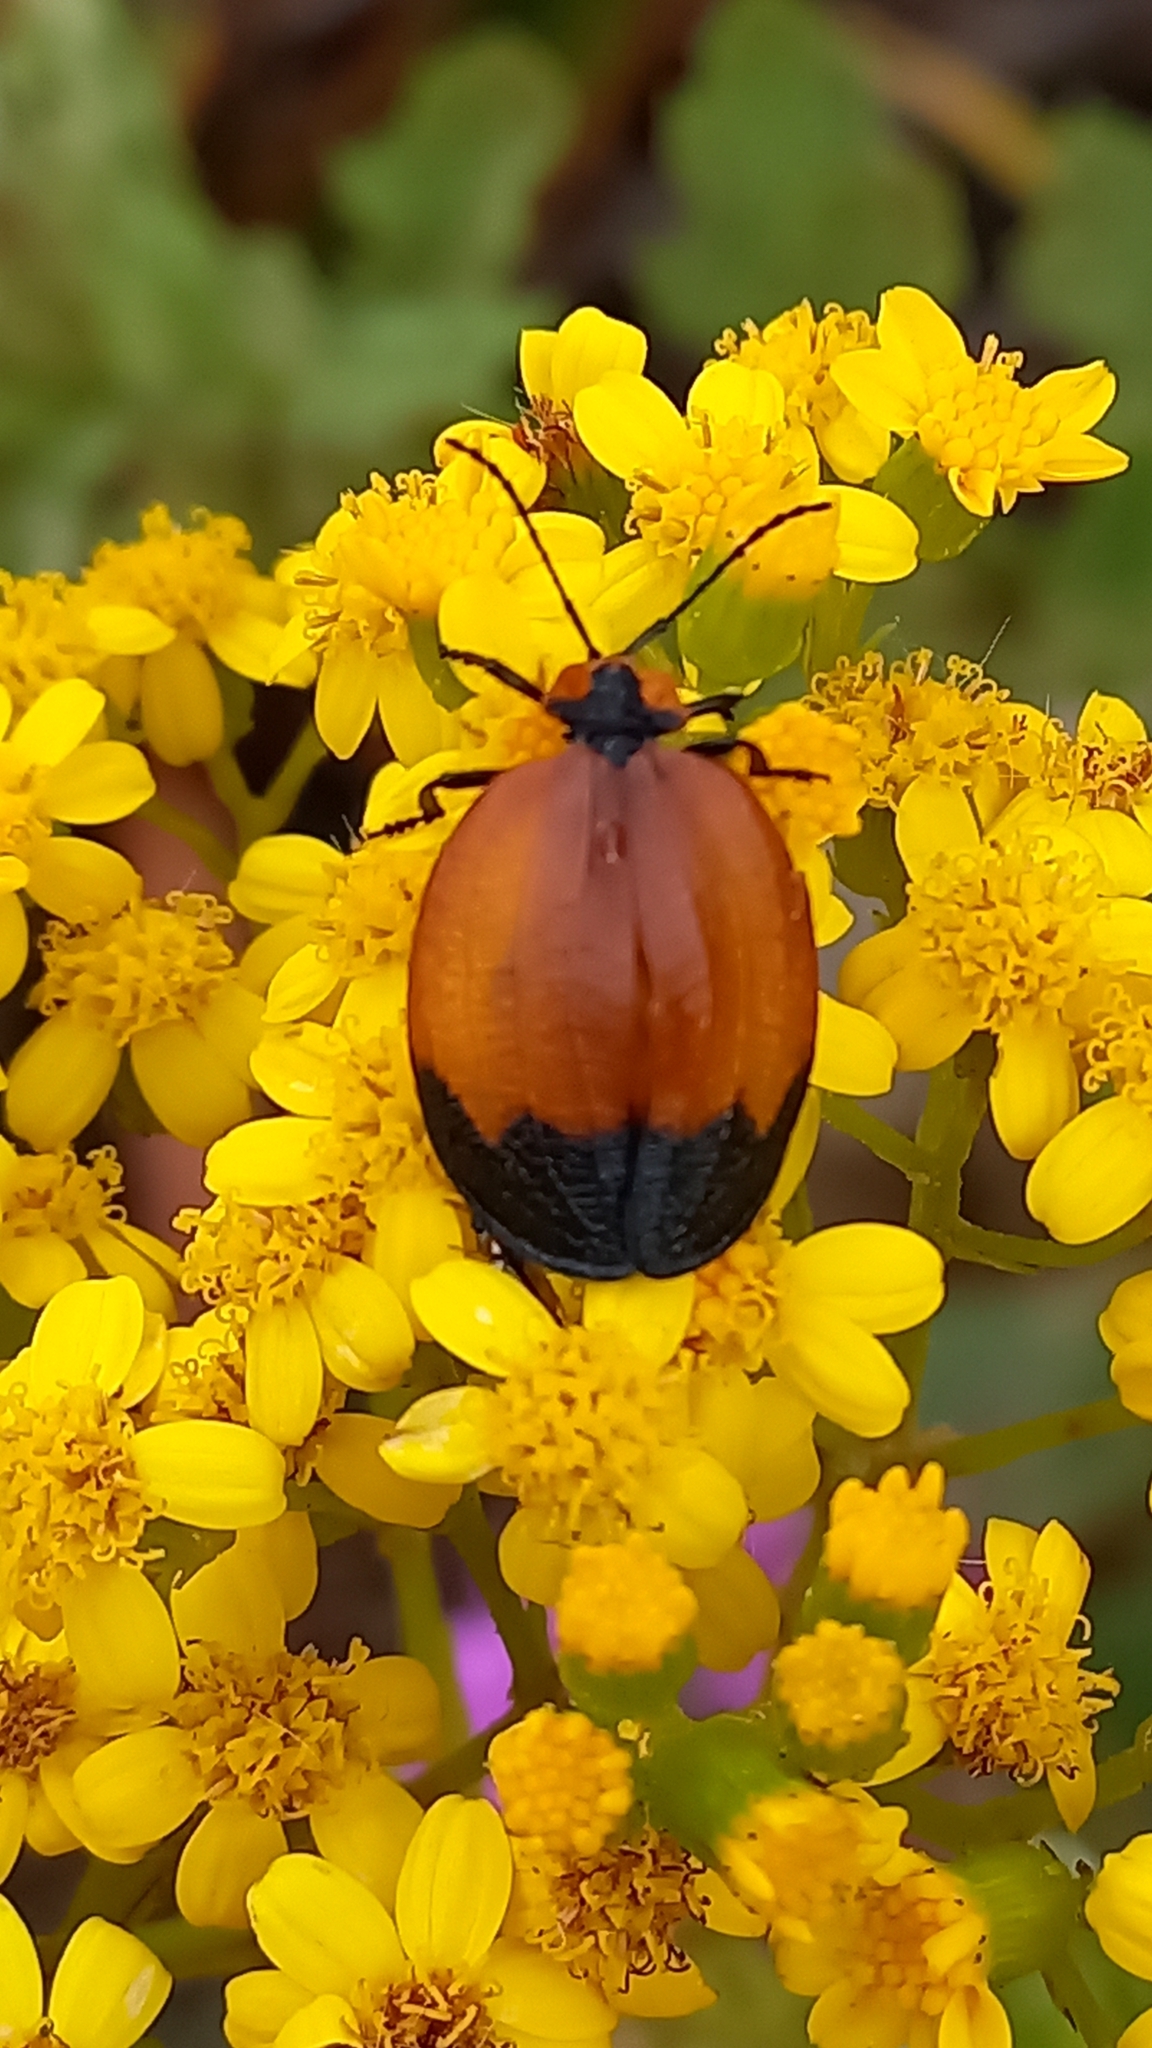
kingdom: Animalia
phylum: Arthropoda
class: Insecta
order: Coleoptera
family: Lycidae
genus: Lycus
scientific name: Lycus
